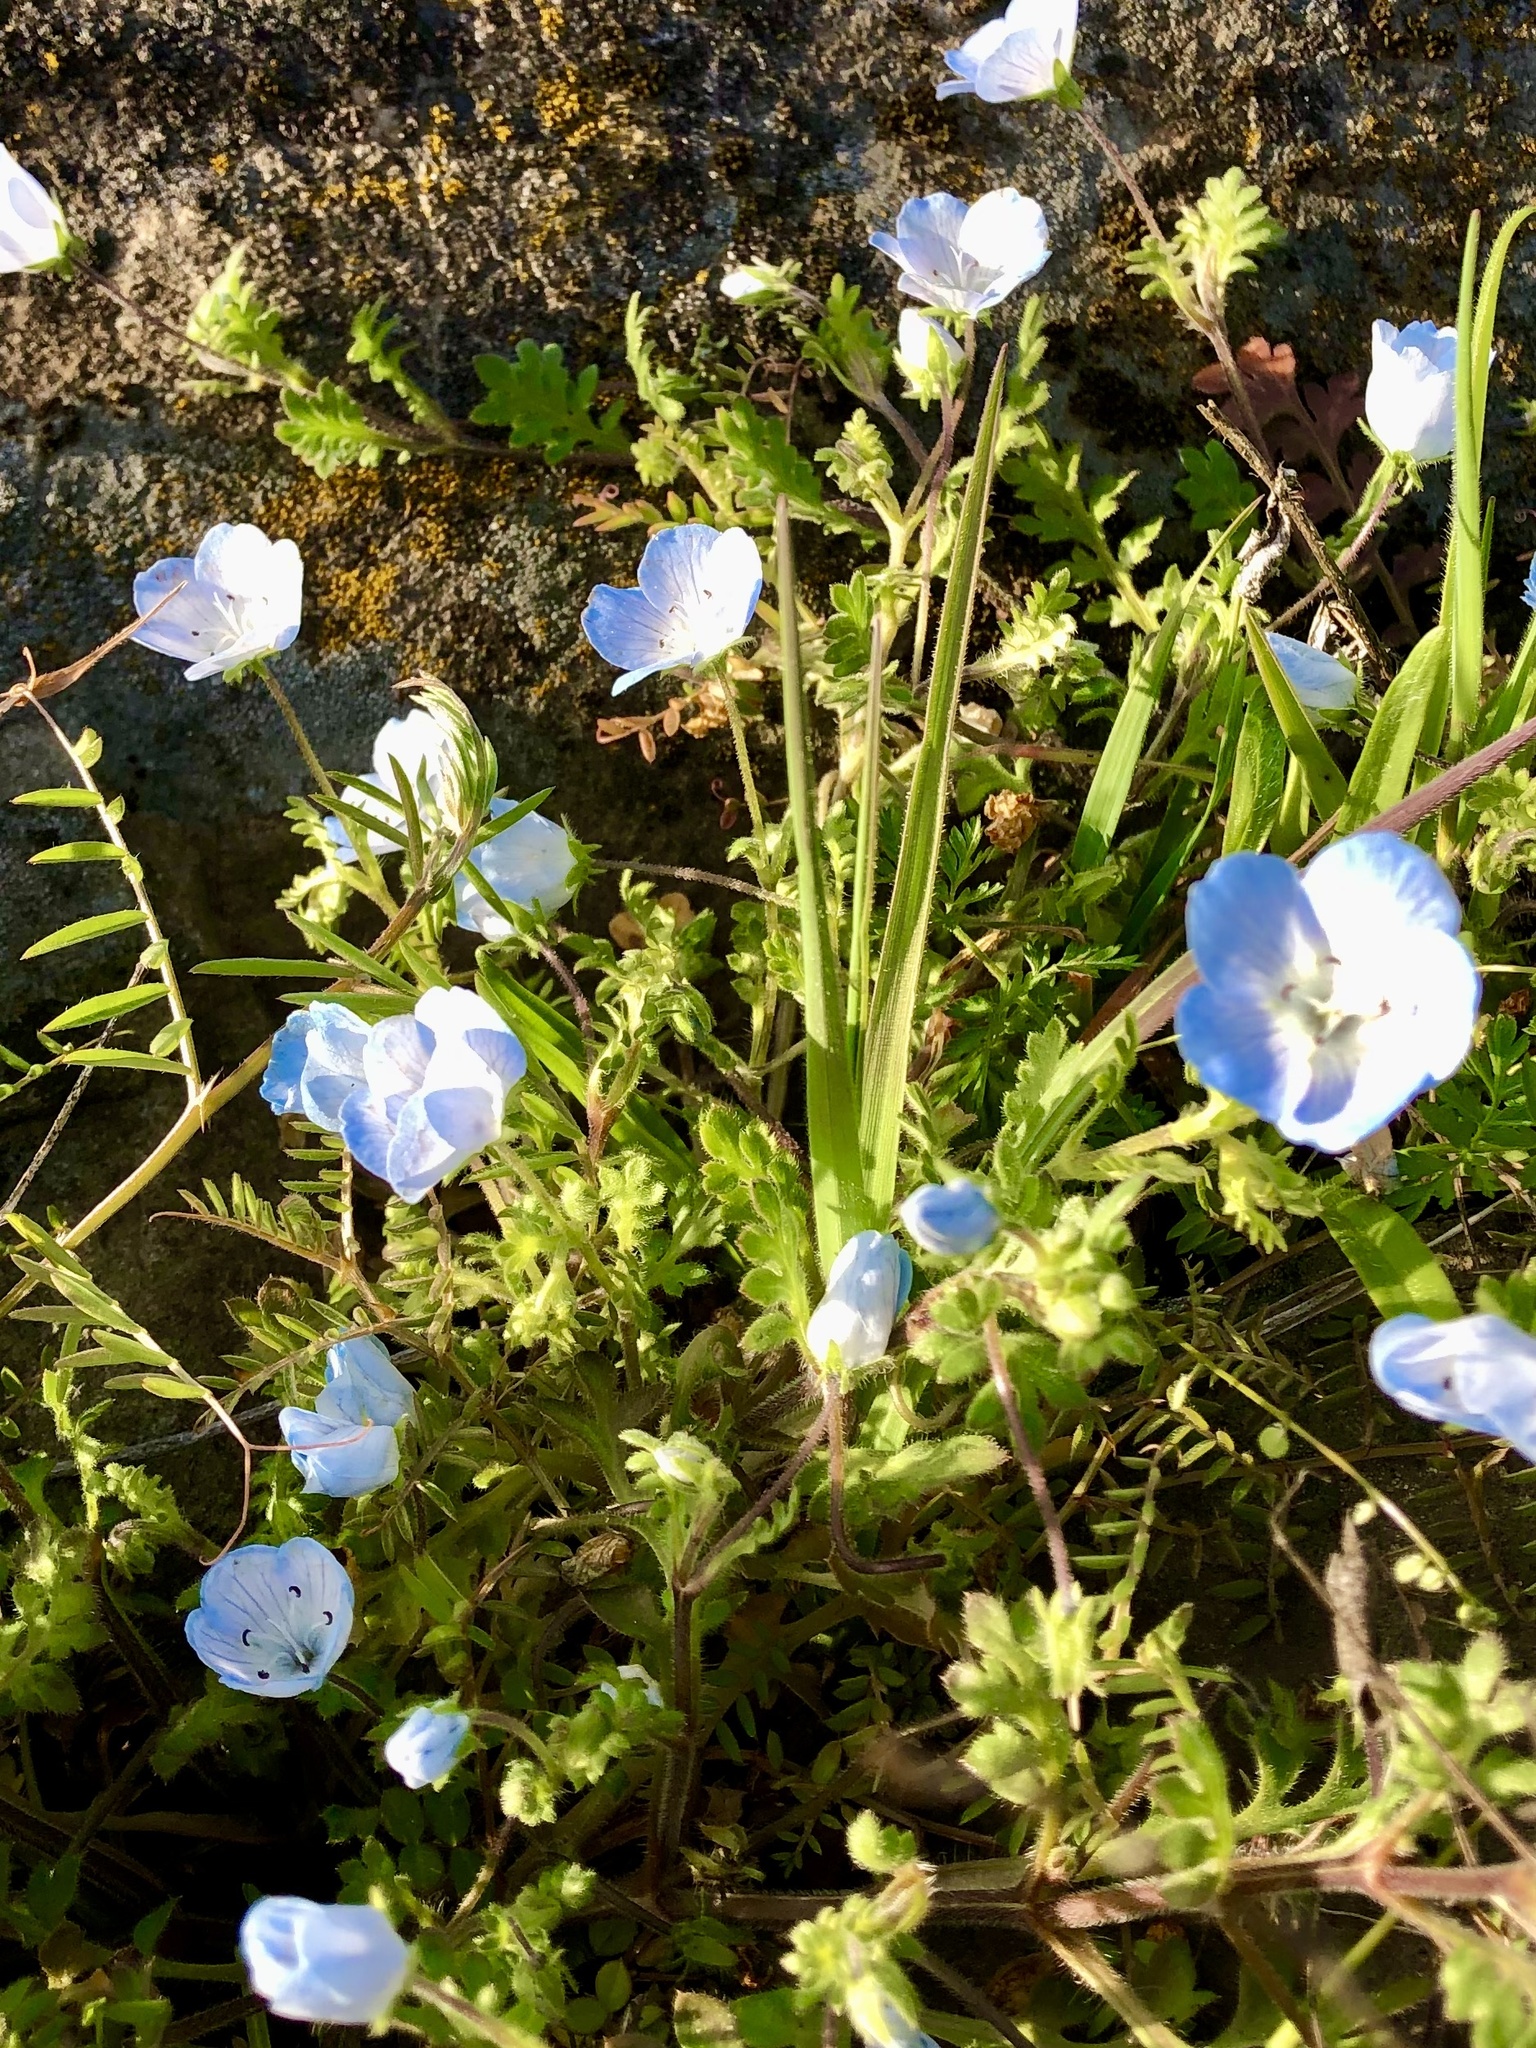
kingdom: Plantae
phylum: Tracheophyta
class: Magnoliopsida
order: Boraginales
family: Hydrophyllaceae
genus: Nemophila
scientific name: Nemophila menziesii
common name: Baby's-blue-eyes
